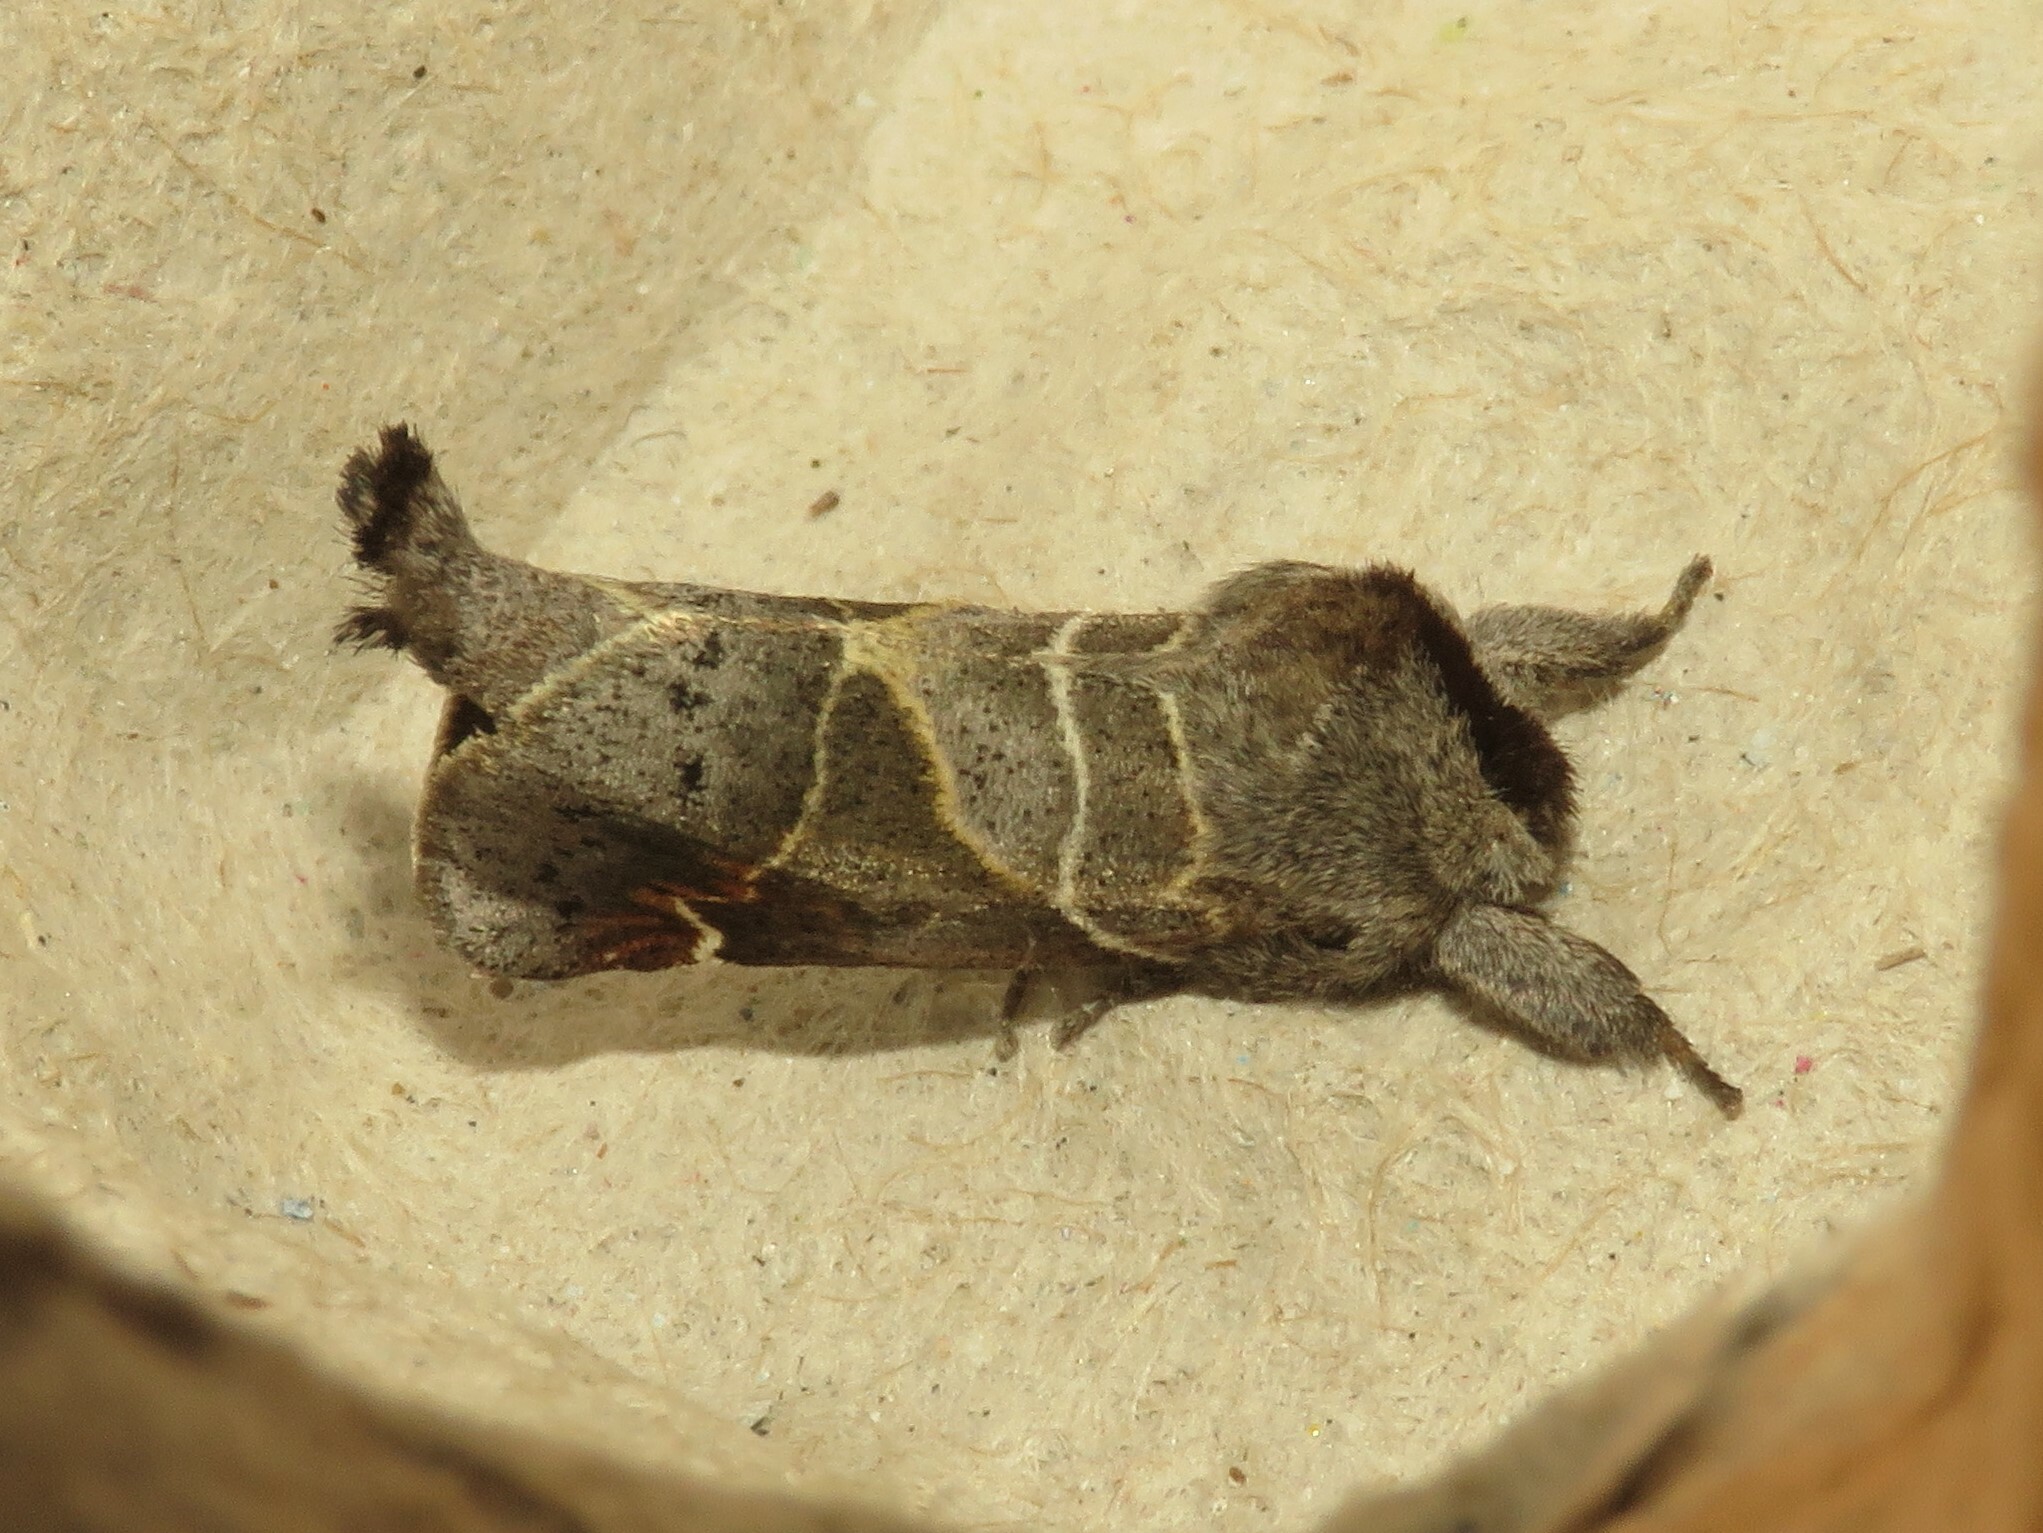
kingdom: Animalia
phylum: Arthropoda
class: Insecta
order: Lepidoptera
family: Notodontidae
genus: Clostera
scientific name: Clostera apicalis
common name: Apical prominent
